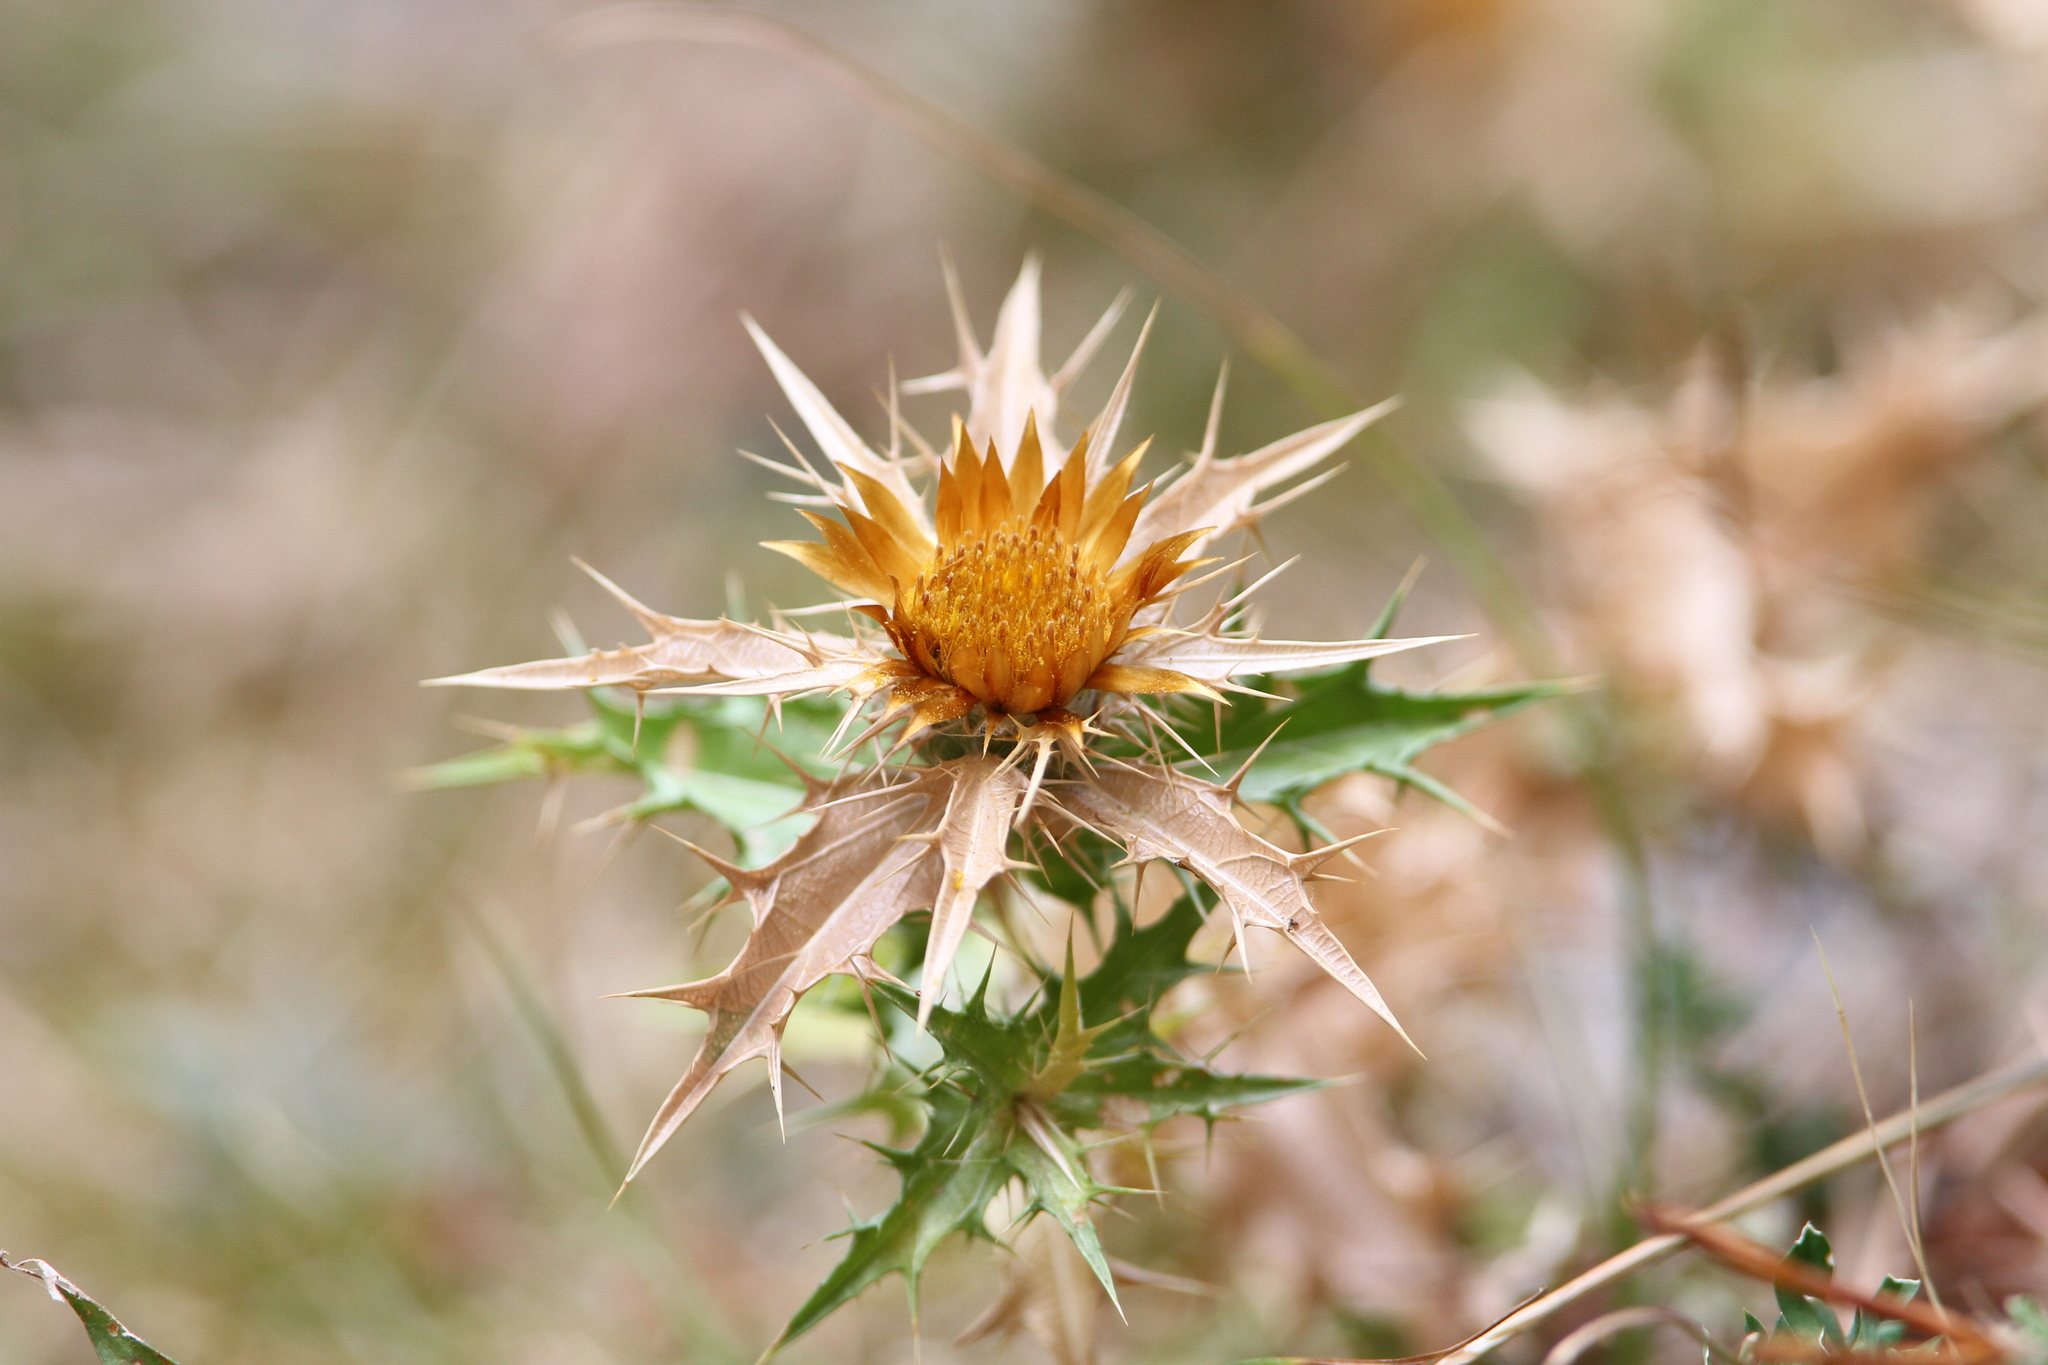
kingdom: Plantae
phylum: Tracheophyta
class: Magnoliopsida
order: Asterales
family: Asteraceae
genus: Carlina
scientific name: Carlina corymbosa
